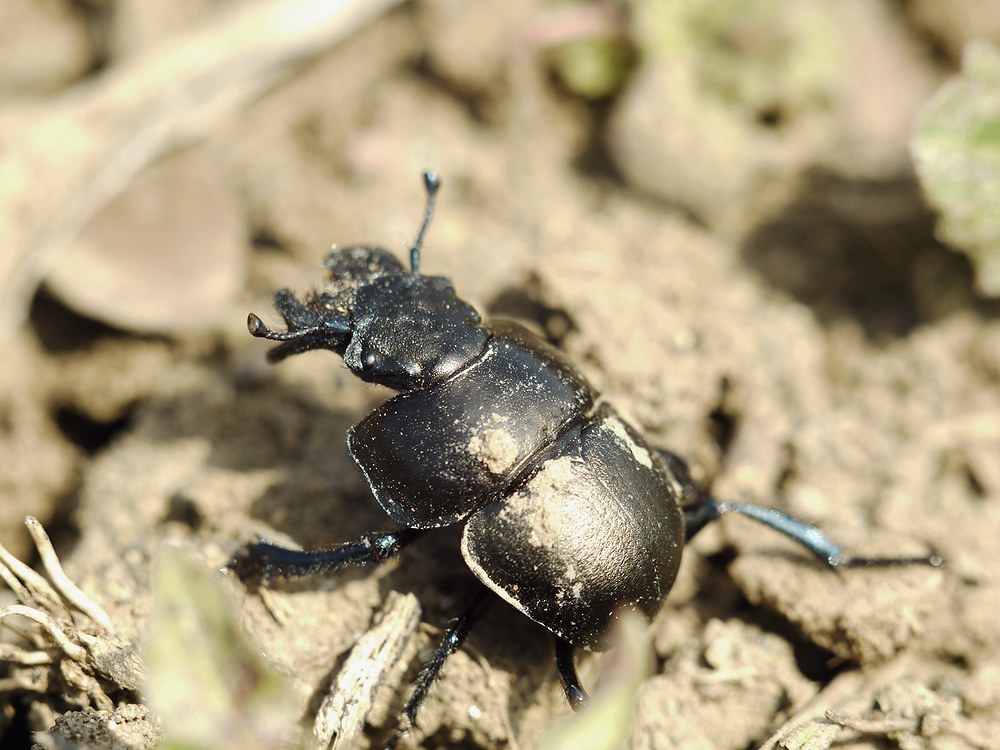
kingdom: Animalia
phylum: Arthropoda
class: Insecta
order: Coleoptera
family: Geotrupidae
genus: Lethrus
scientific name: Lethrus apterus
